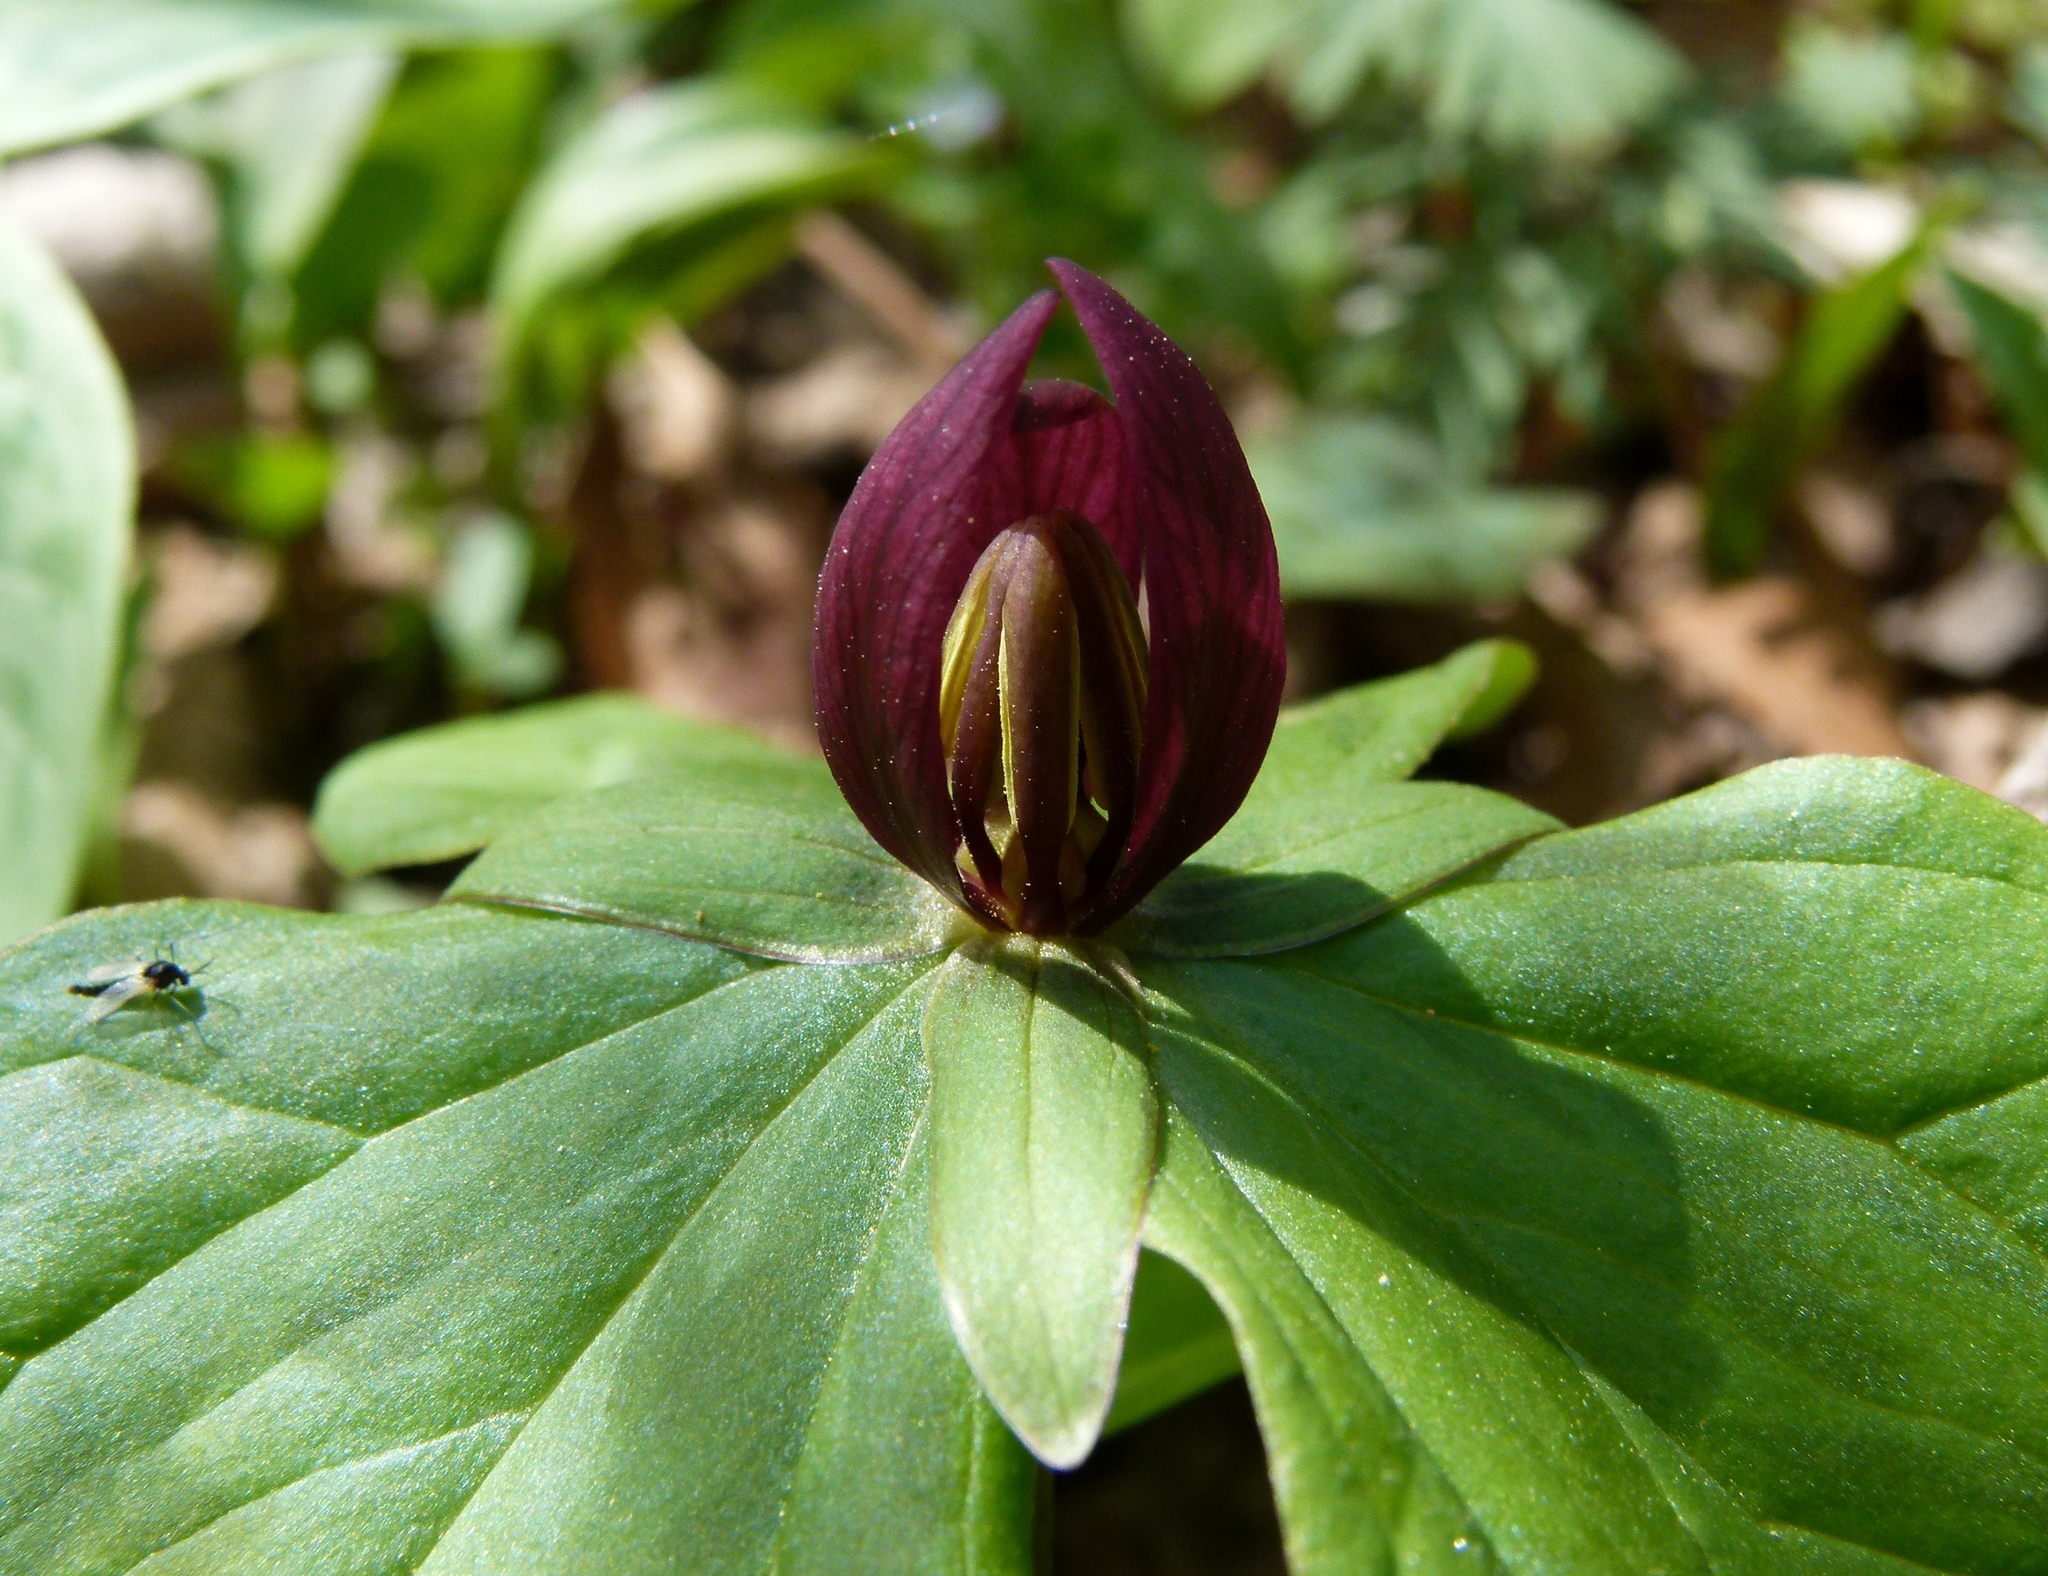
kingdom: Plantae
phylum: Tracheophyta
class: Liliopsida
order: Liliales
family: Melanthiaceae
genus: Trillium
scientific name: Trillium sessile
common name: Sessile trillium
